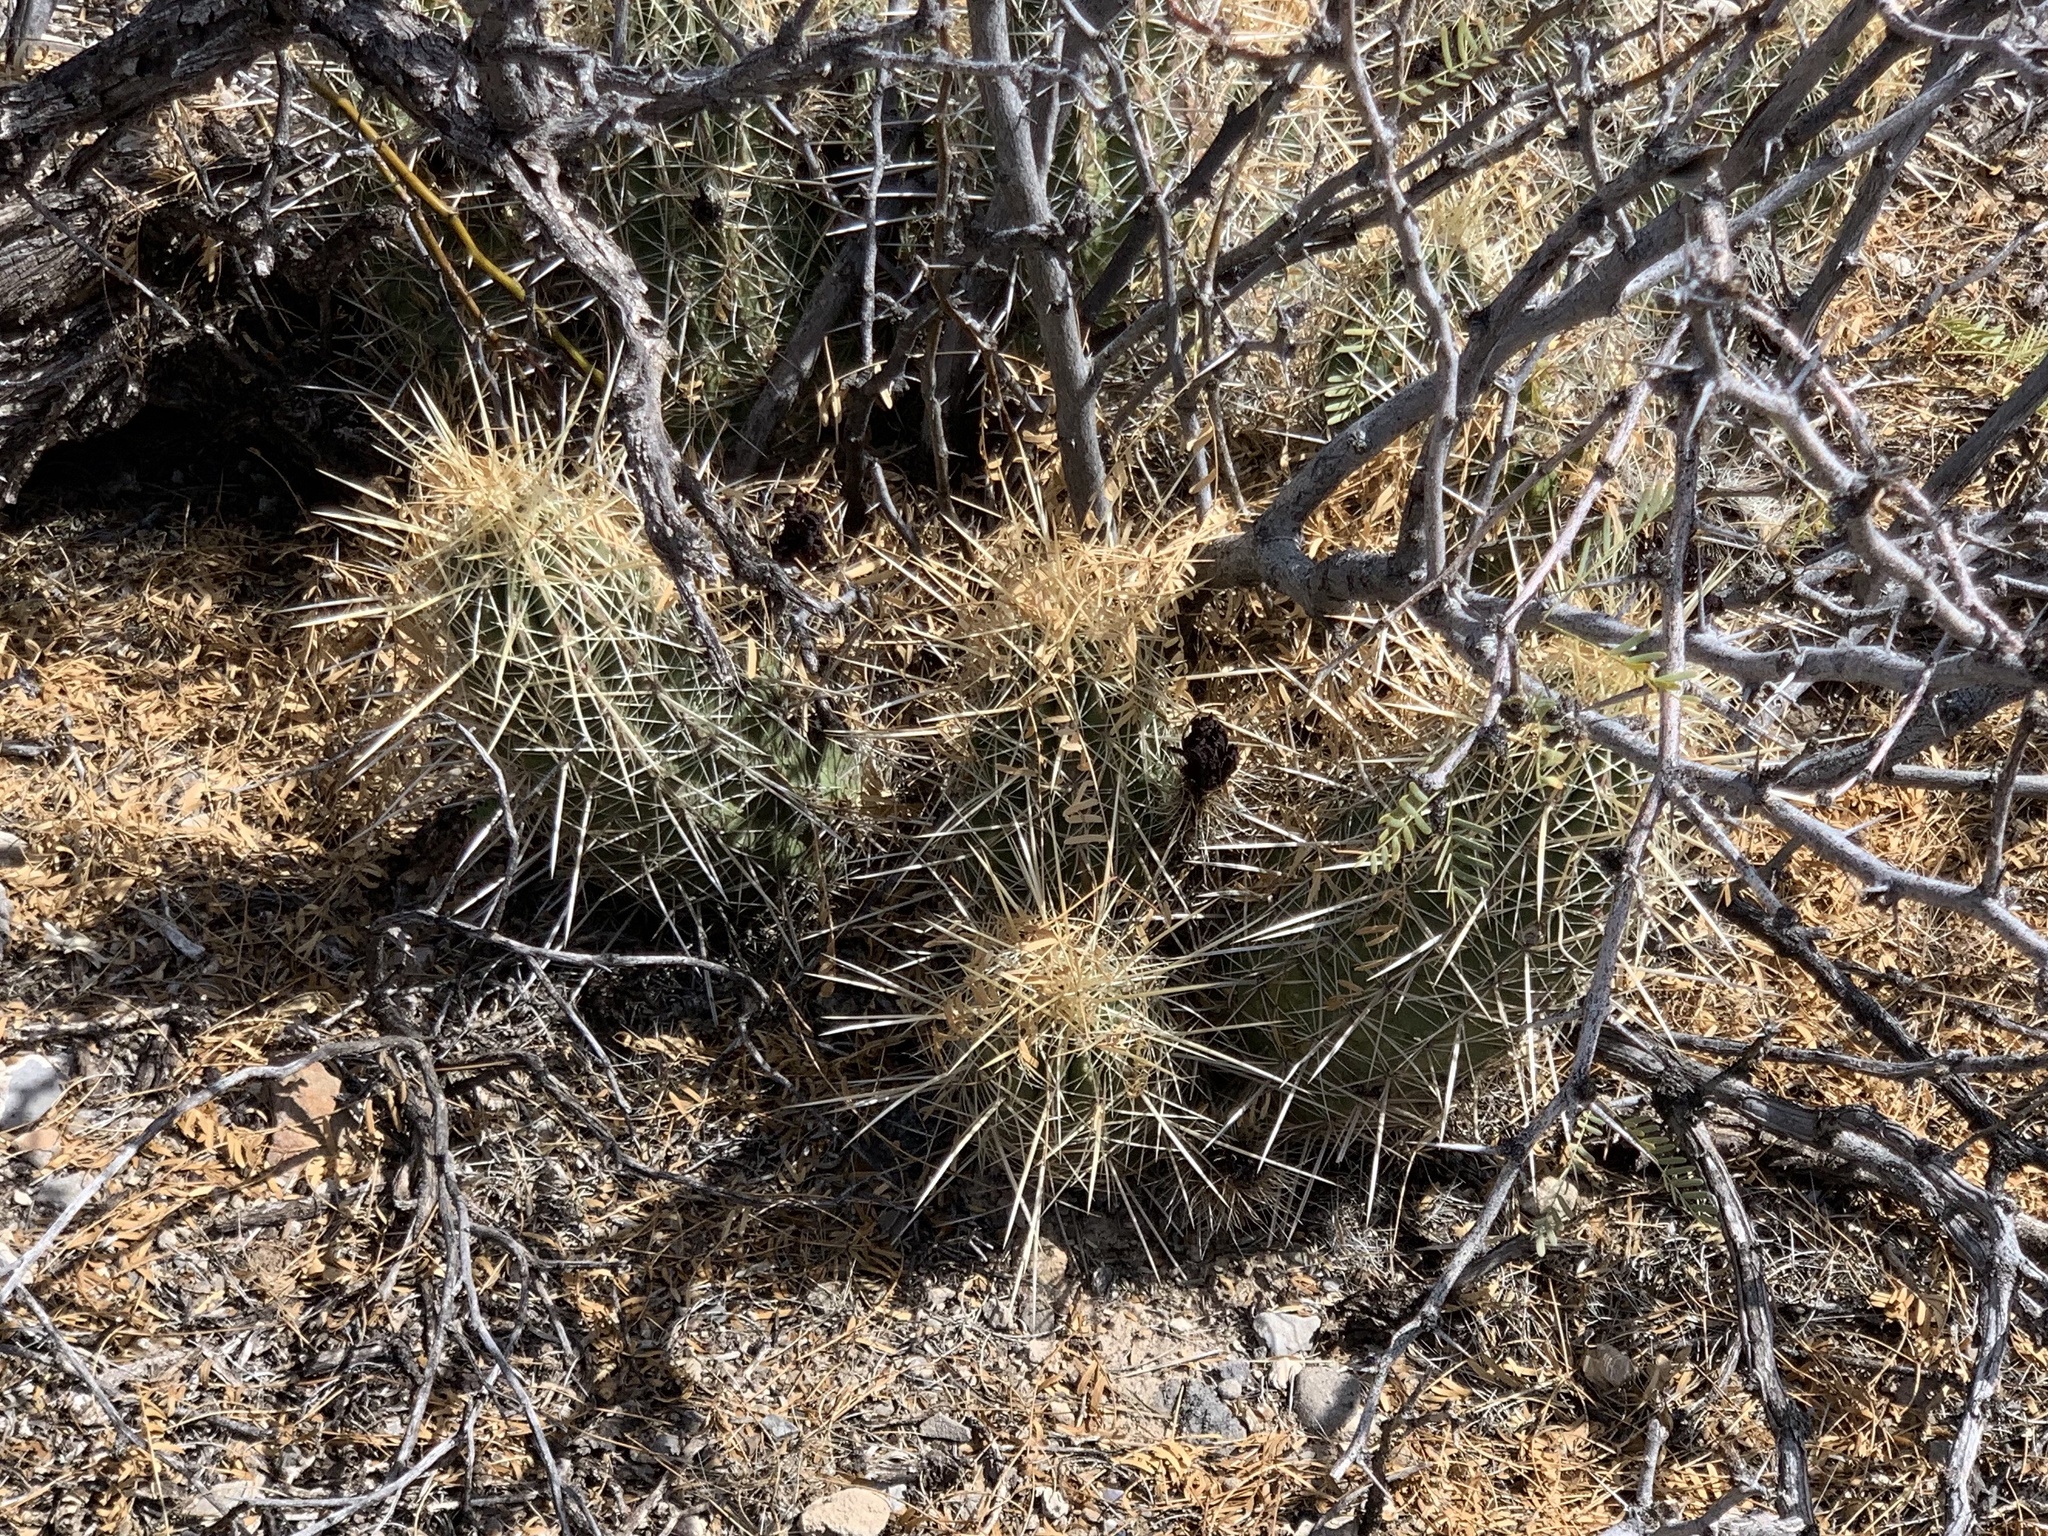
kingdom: Plantae
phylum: Tracheophyta
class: Magnoliopsida
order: Caryophyllales
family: Cactaceae
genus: Echinocereus
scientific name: Echinocereus stramineus
